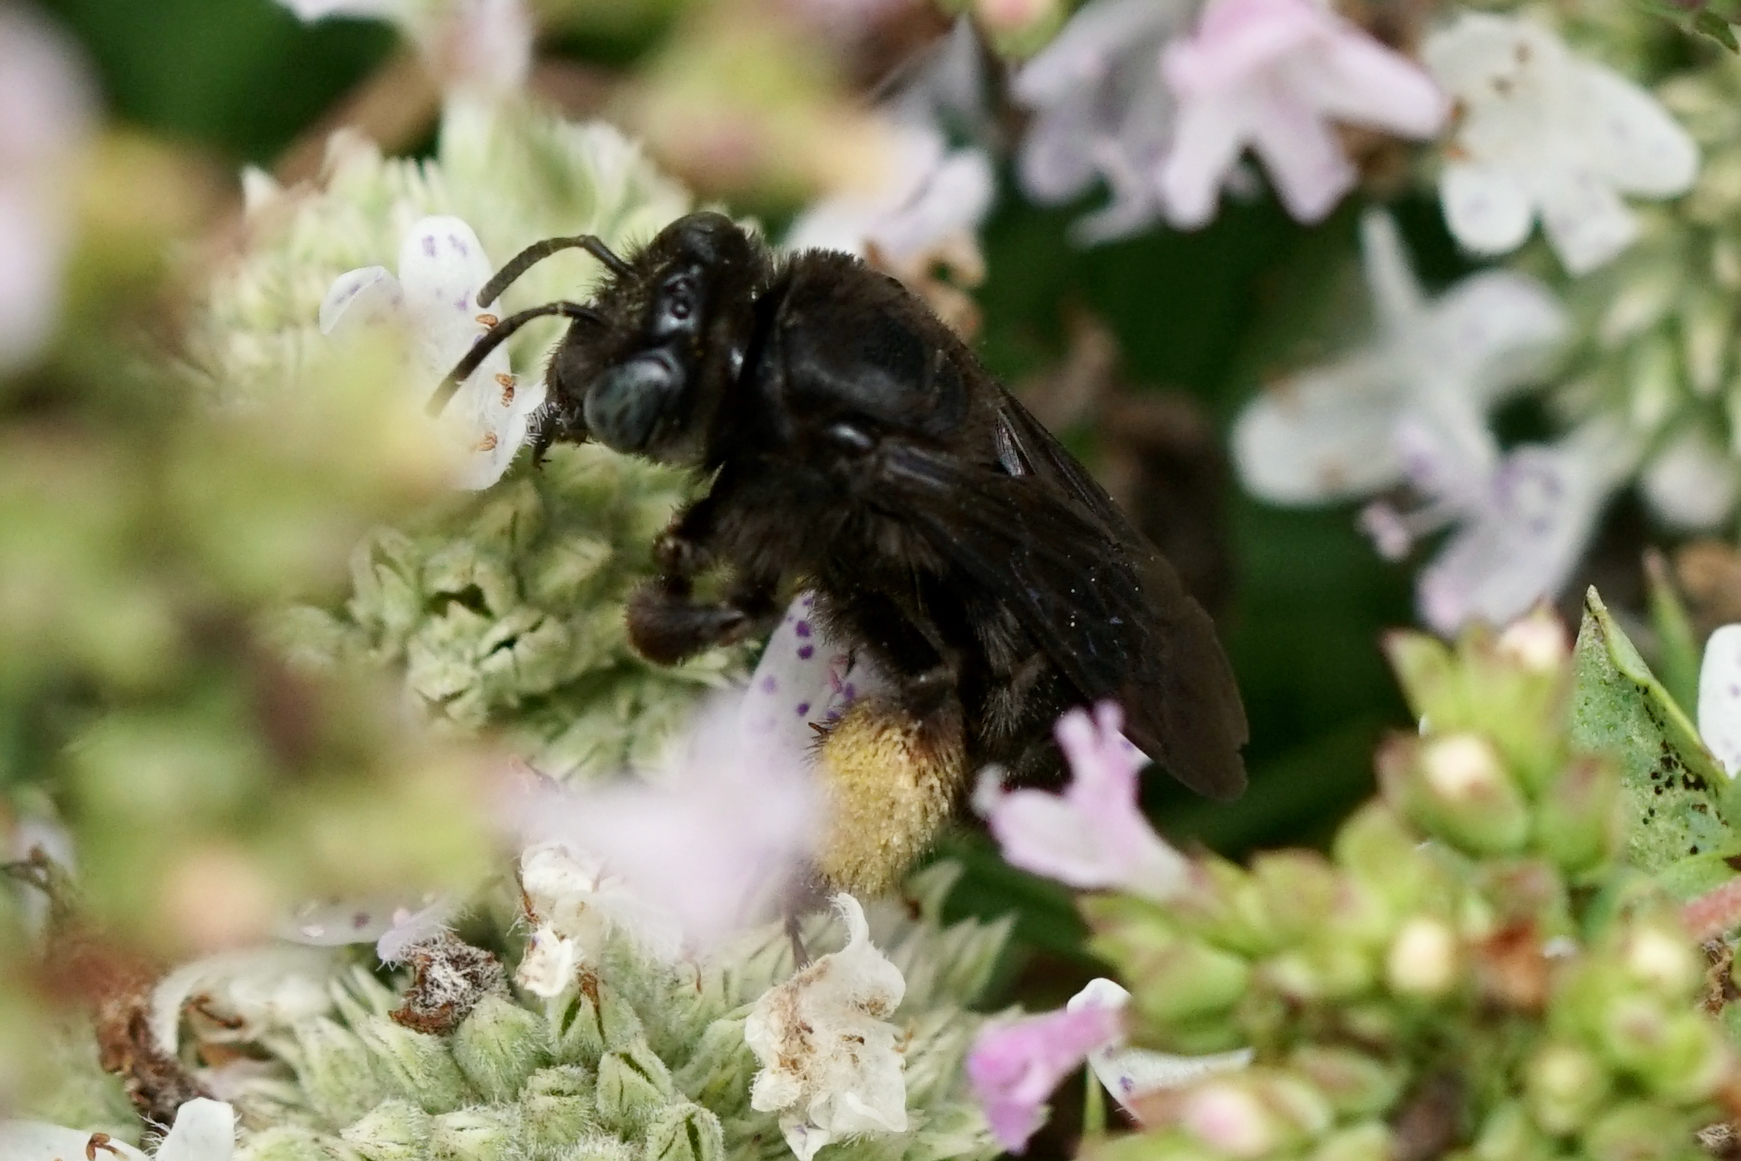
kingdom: Animalia
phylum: Arthropoda
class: Insecta
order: Hymenoptera
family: Apidae
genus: Melissodes
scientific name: Melissodes bimaculatus
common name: Two-spotted long-horned bee
